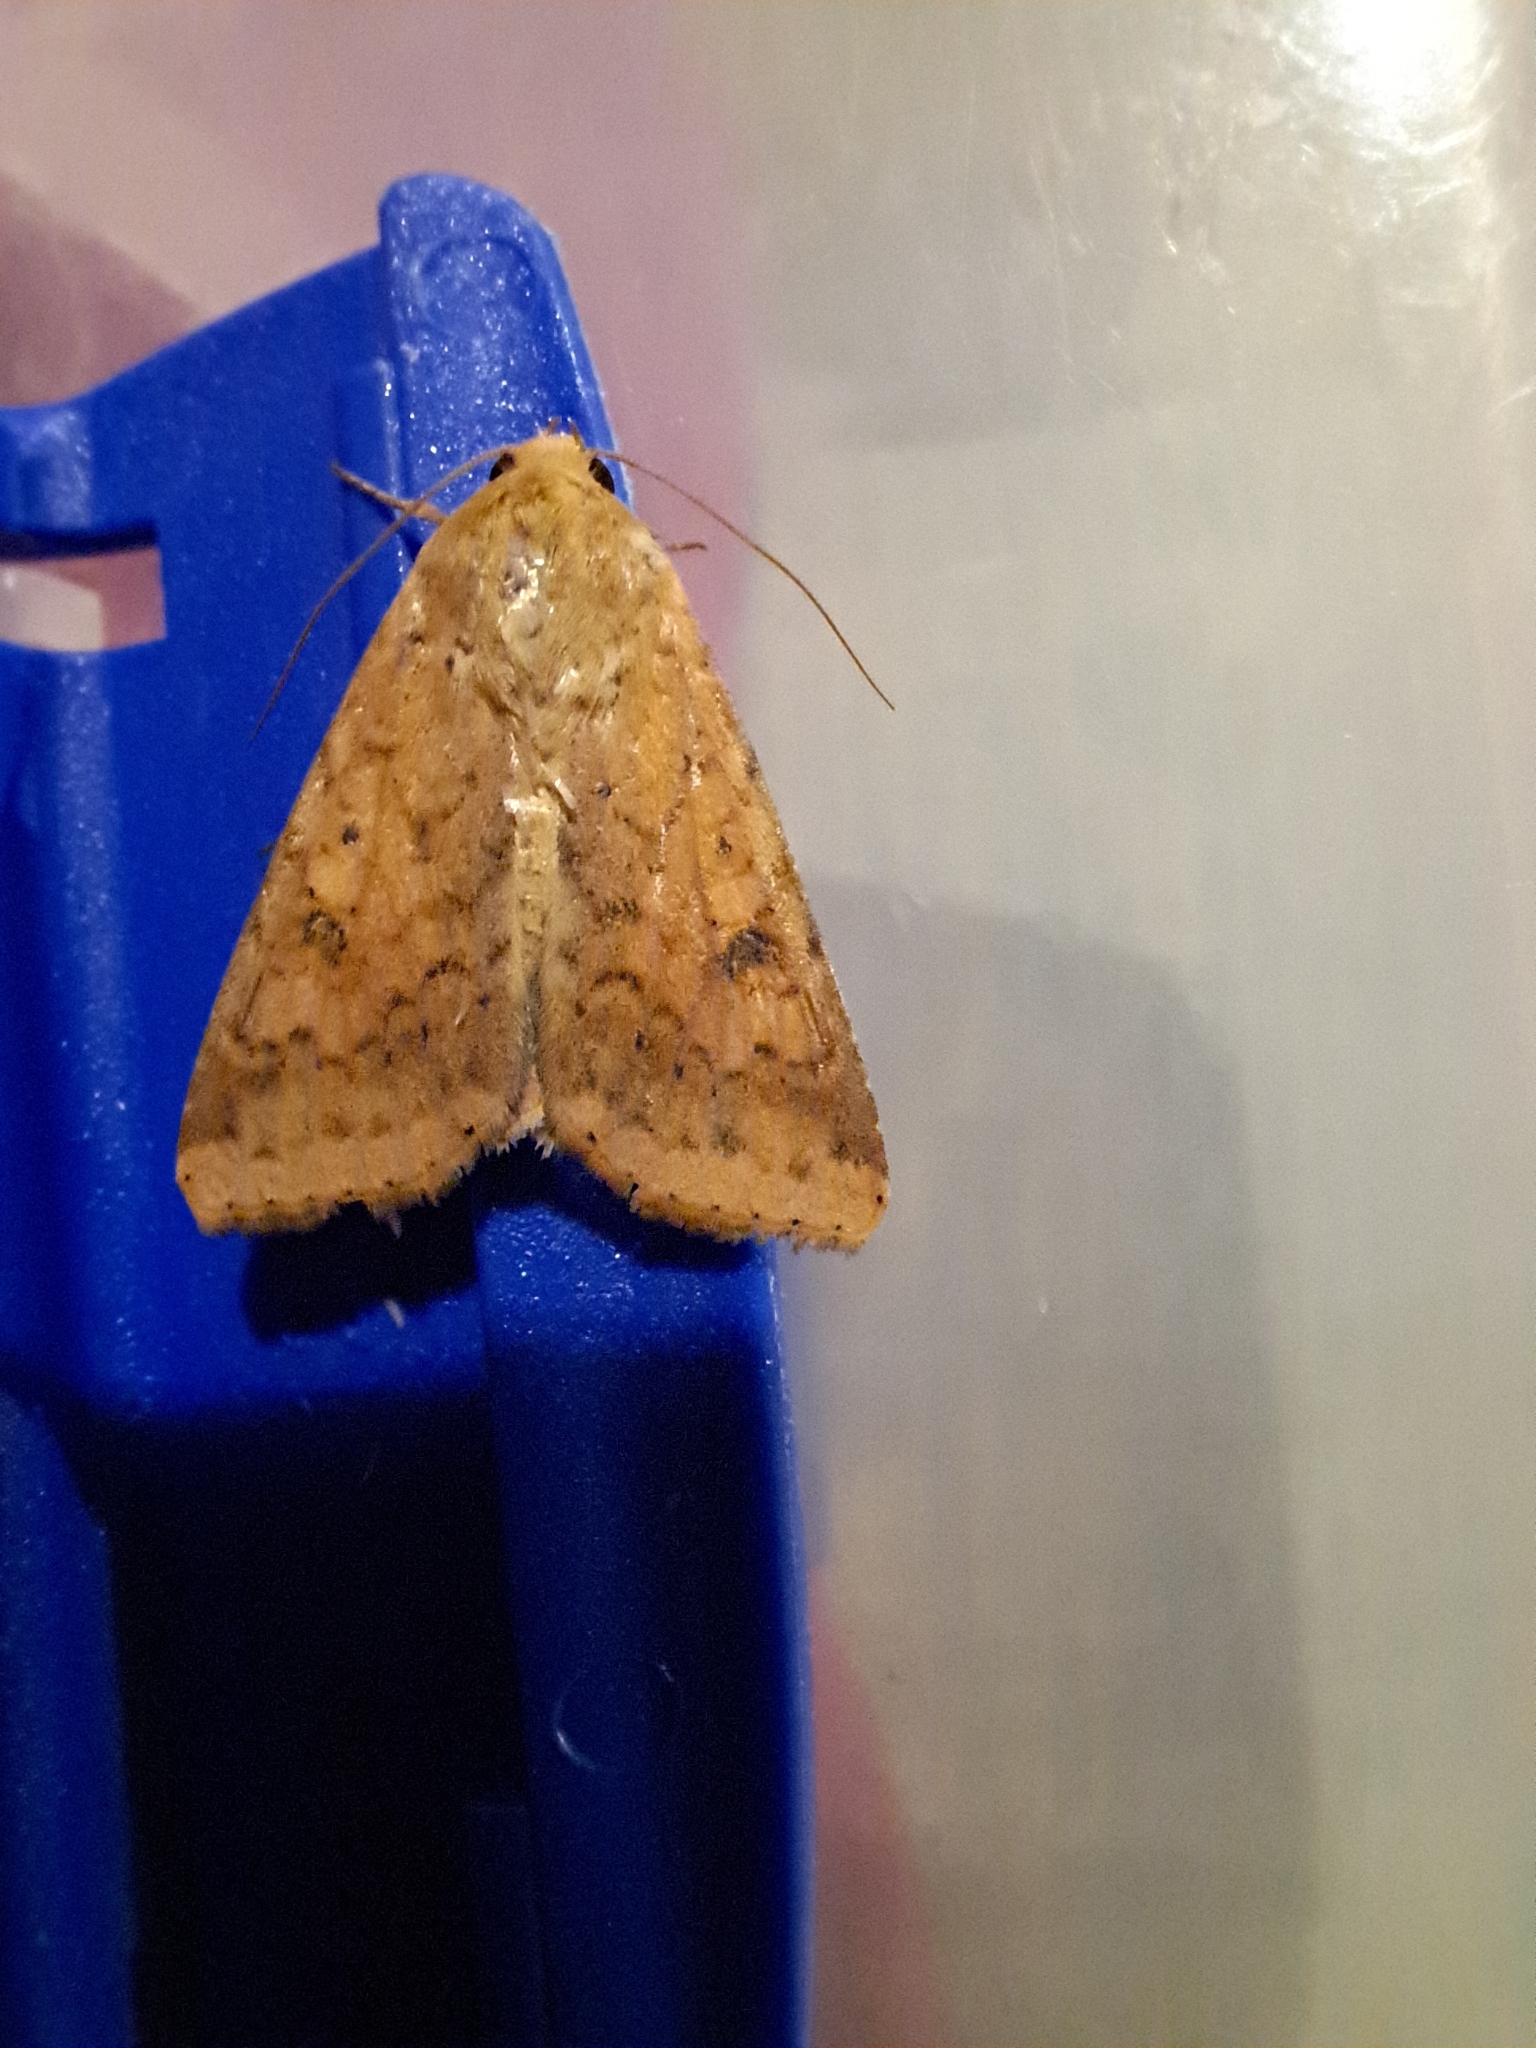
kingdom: Animalia
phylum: Arthropoda
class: Insecta
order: Lepidoptera
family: Noctuidae
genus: Helicoverpa
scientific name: Helicoverpa armigera
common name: Cotton bollworm
